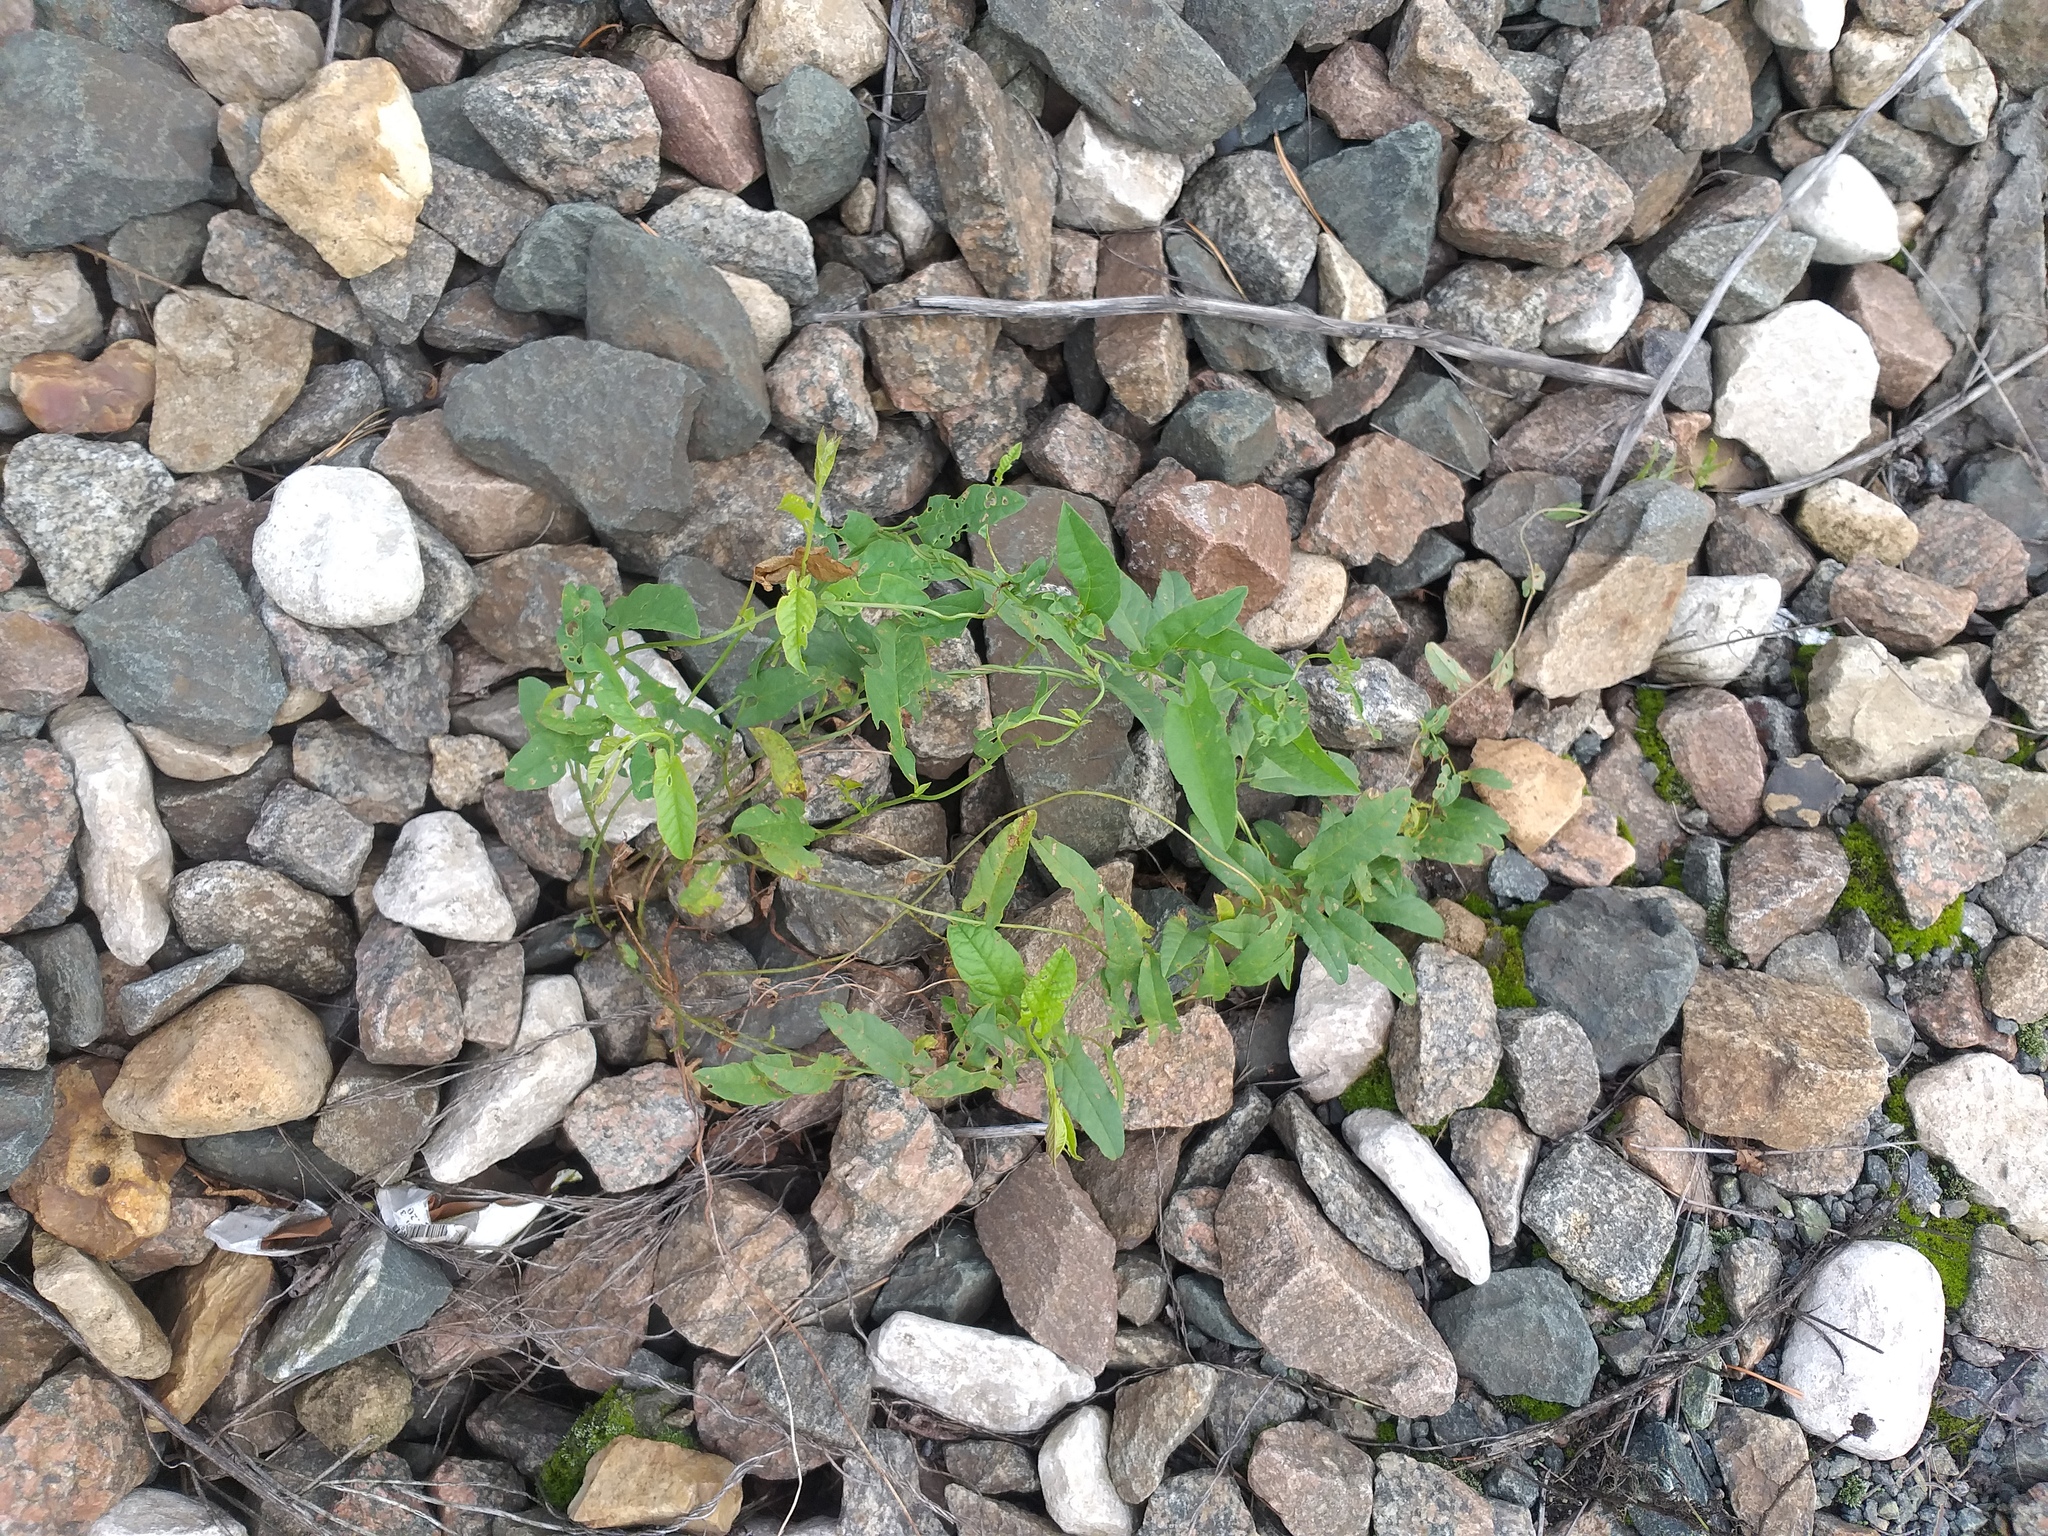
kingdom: Plantae
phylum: Tracheophyta
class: Magnoliopsida
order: Solanales
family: Convolvulaceae
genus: Convolvulus
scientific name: Convolvulus arvensis
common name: Field bindweed
